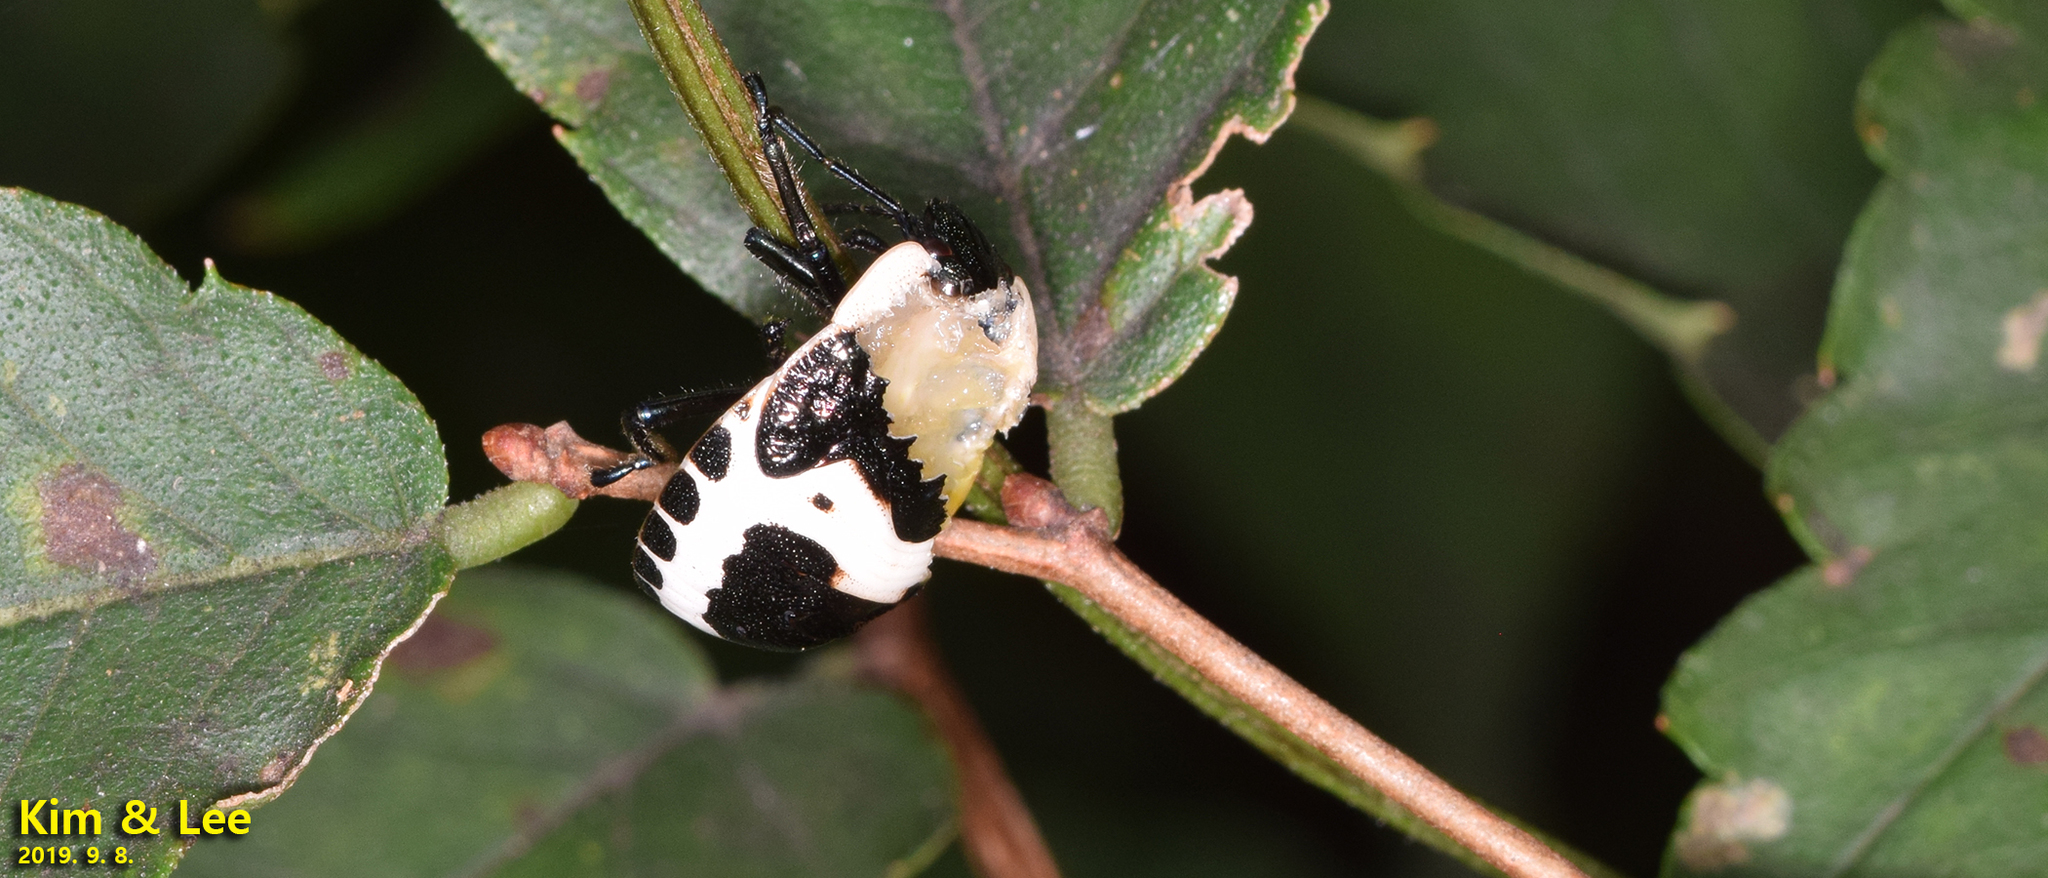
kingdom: Animalia
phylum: Arthropoda
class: Insecta
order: Hemiptera
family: Scutelleridae
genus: Poecilocoris
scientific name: Poecilocoris lewisi
